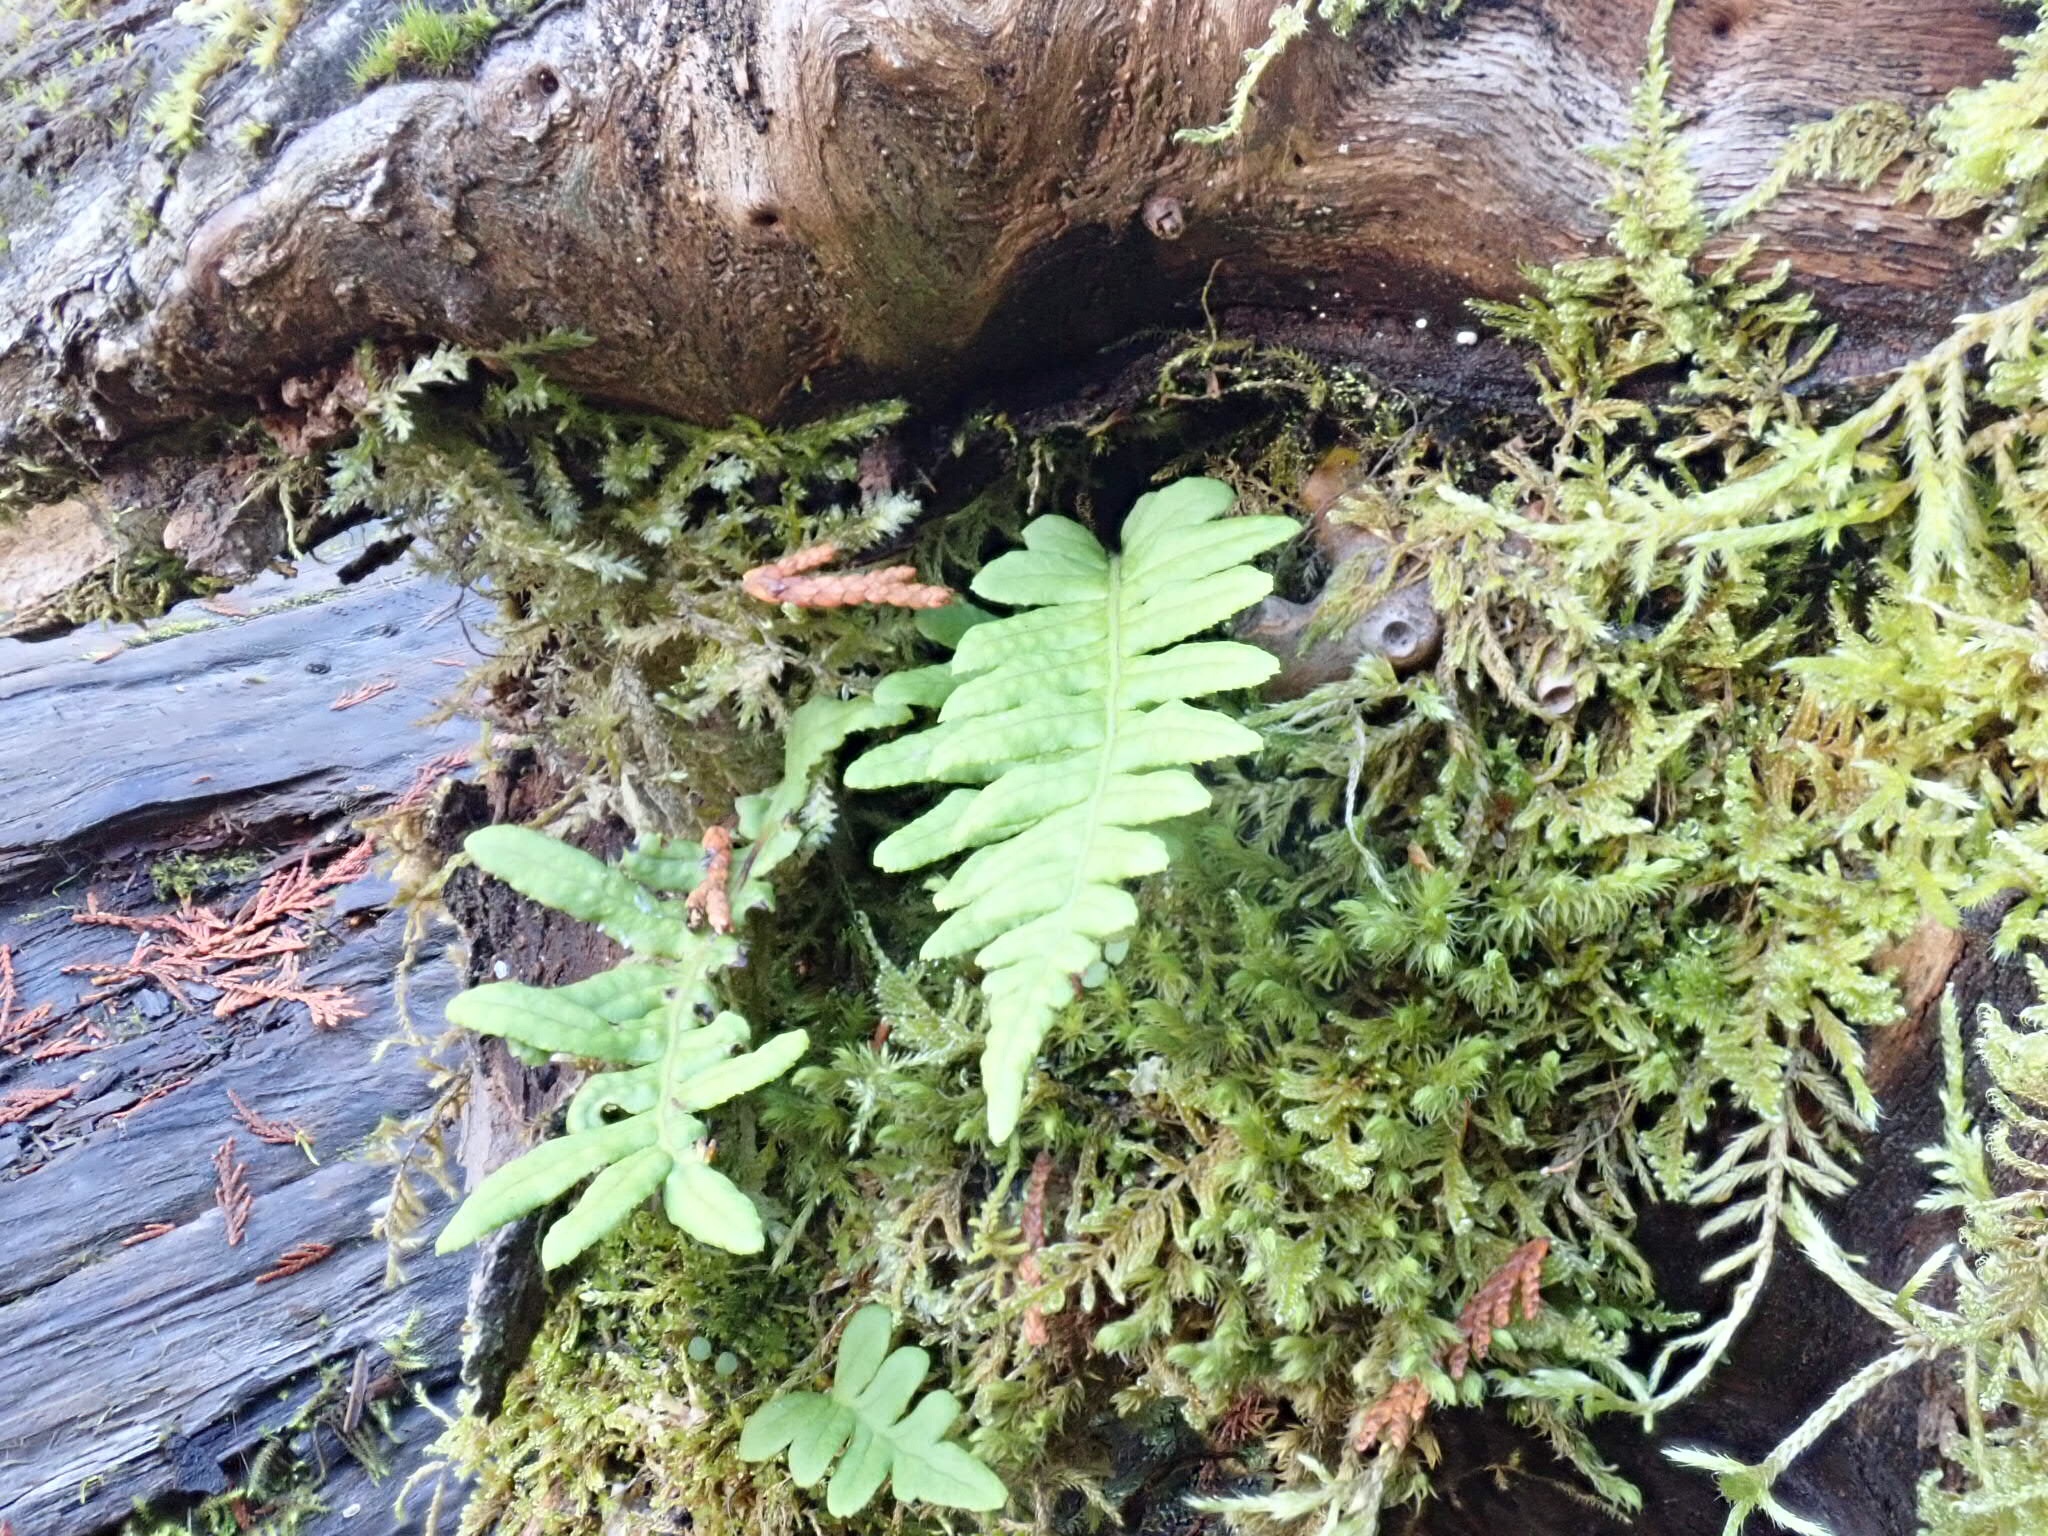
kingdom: Plantae
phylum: Tracheophyta
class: Polypodiopsida
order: Polypodiales
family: Polypodiaceae
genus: Polypodium
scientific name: Polypodium glycyrrhiza
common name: Licorice fern
